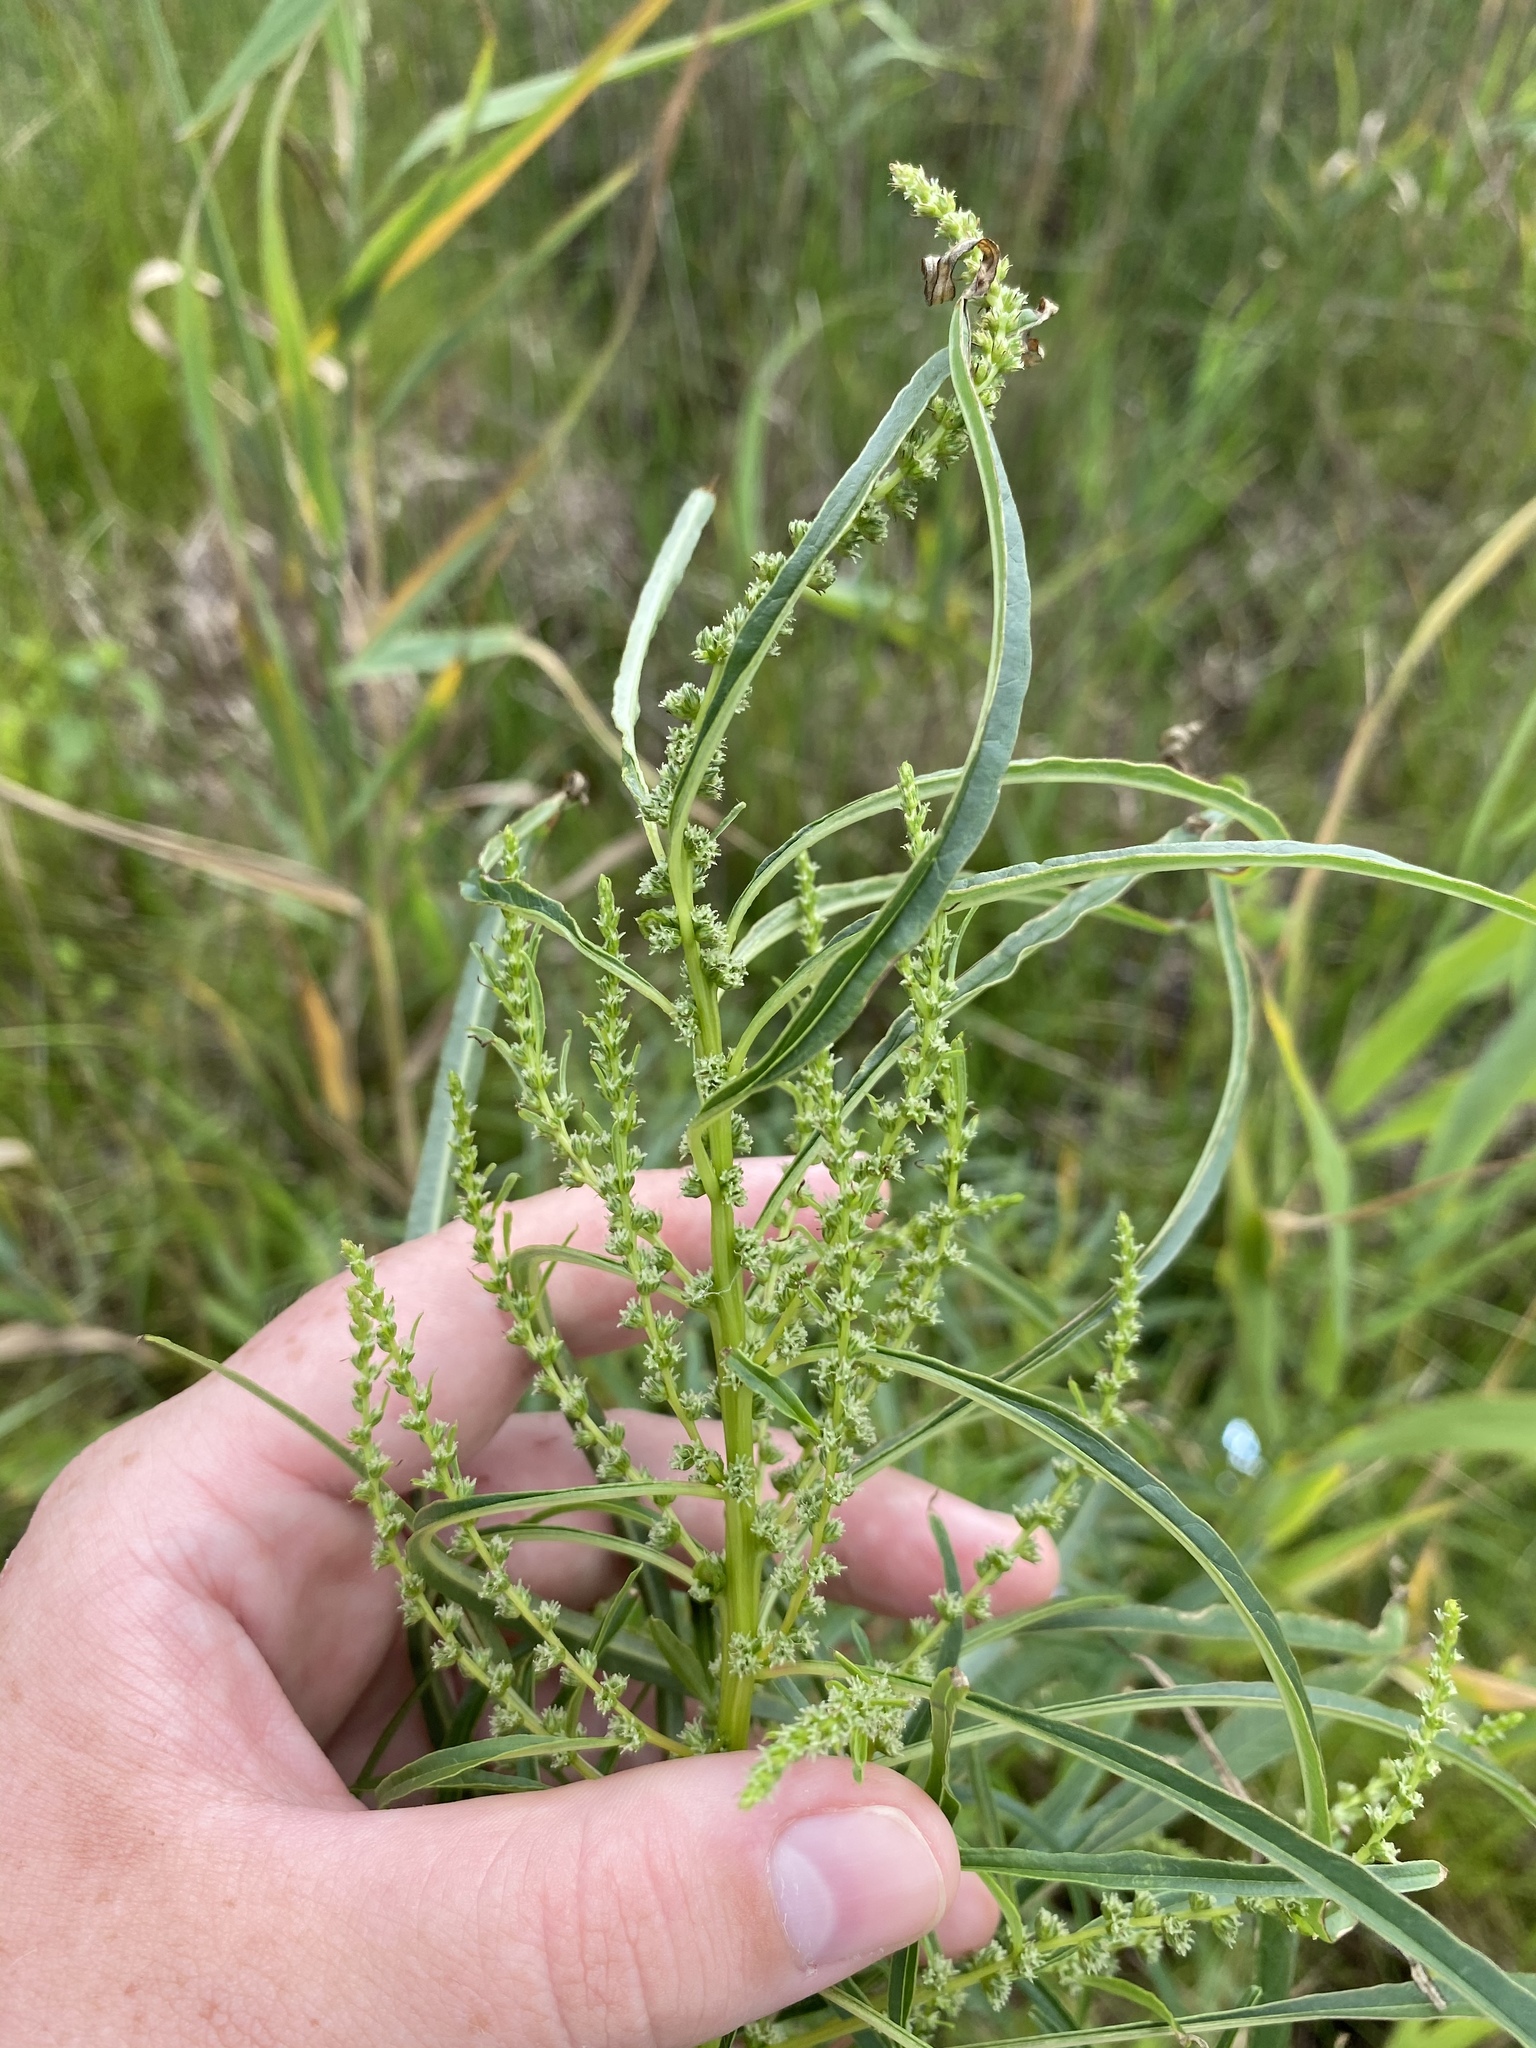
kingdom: Plantae
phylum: Tracheophyta
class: Magnoliopsida
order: Caryophyllales
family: Amaranthaceae
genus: Amaranthus
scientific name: Amaranthus cannabinus
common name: Salt-marsh water-hemp
